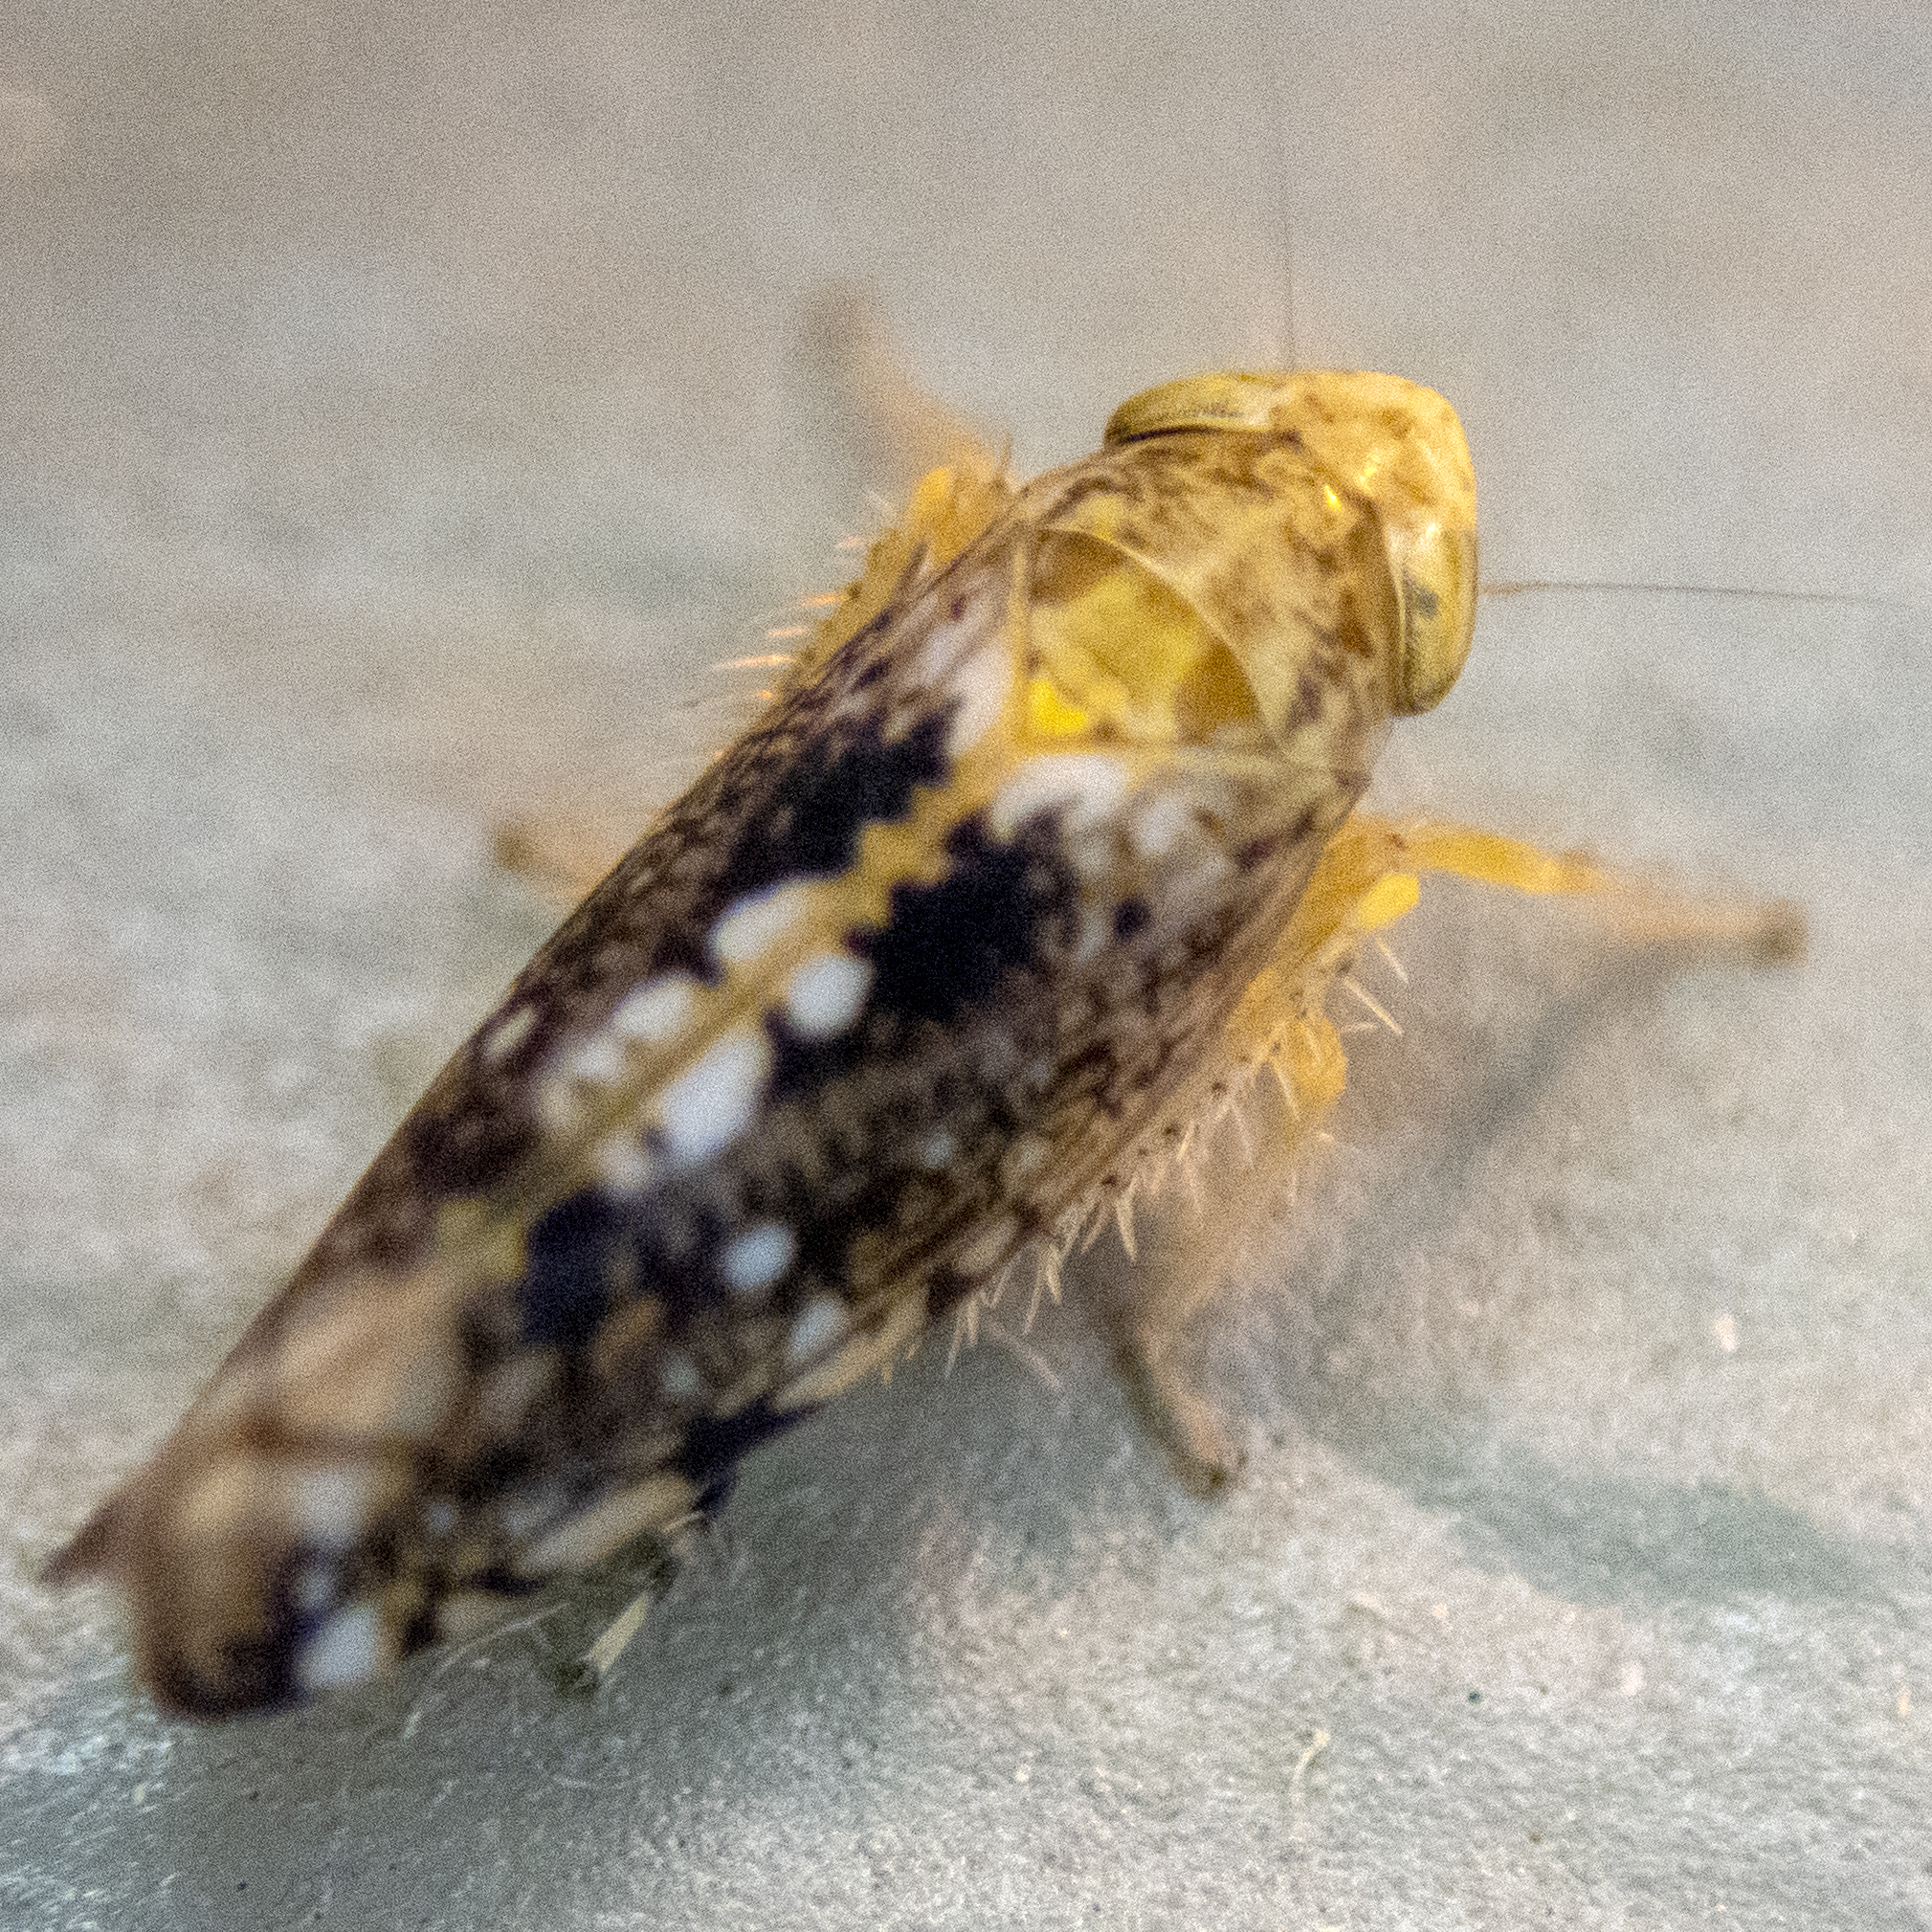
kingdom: Animalia
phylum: Arthropoda
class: Insecta
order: Hemiptera
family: Cicadellidae
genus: Prescottia
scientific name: Prescottia lobata
